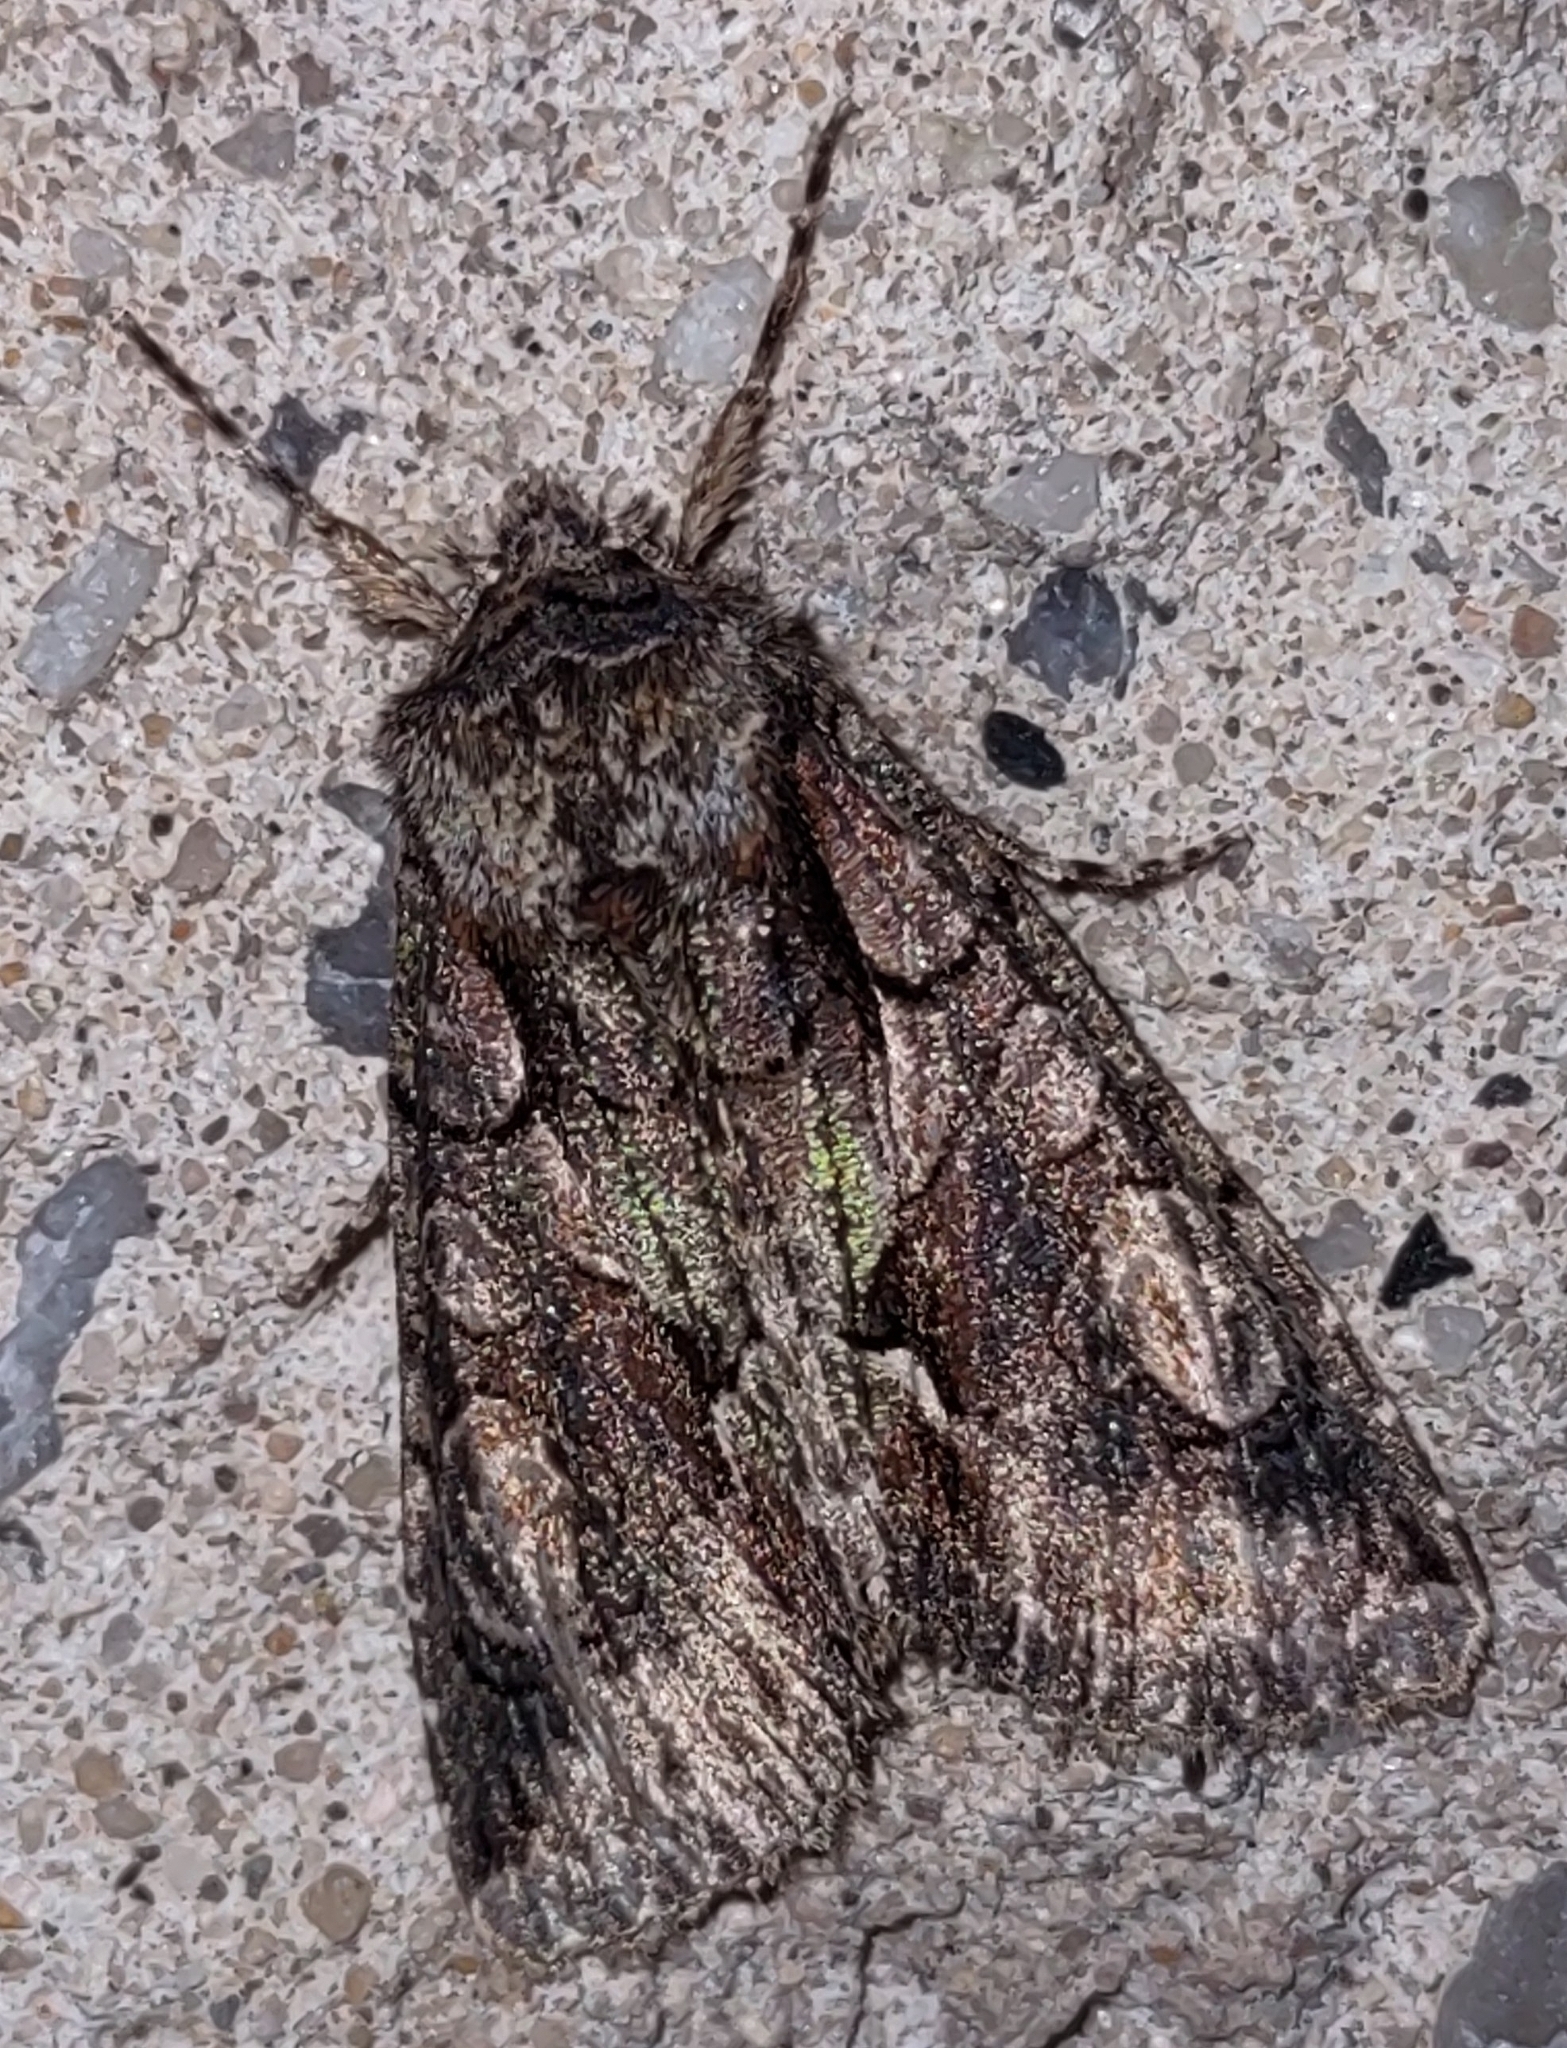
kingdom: Animalia
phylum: Arthropoda
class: Insecta
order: Lepidoptera
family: Noctuidae
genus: Allophyes
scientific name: Allophyes oxyacanthae
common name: Green-brindled crescent
